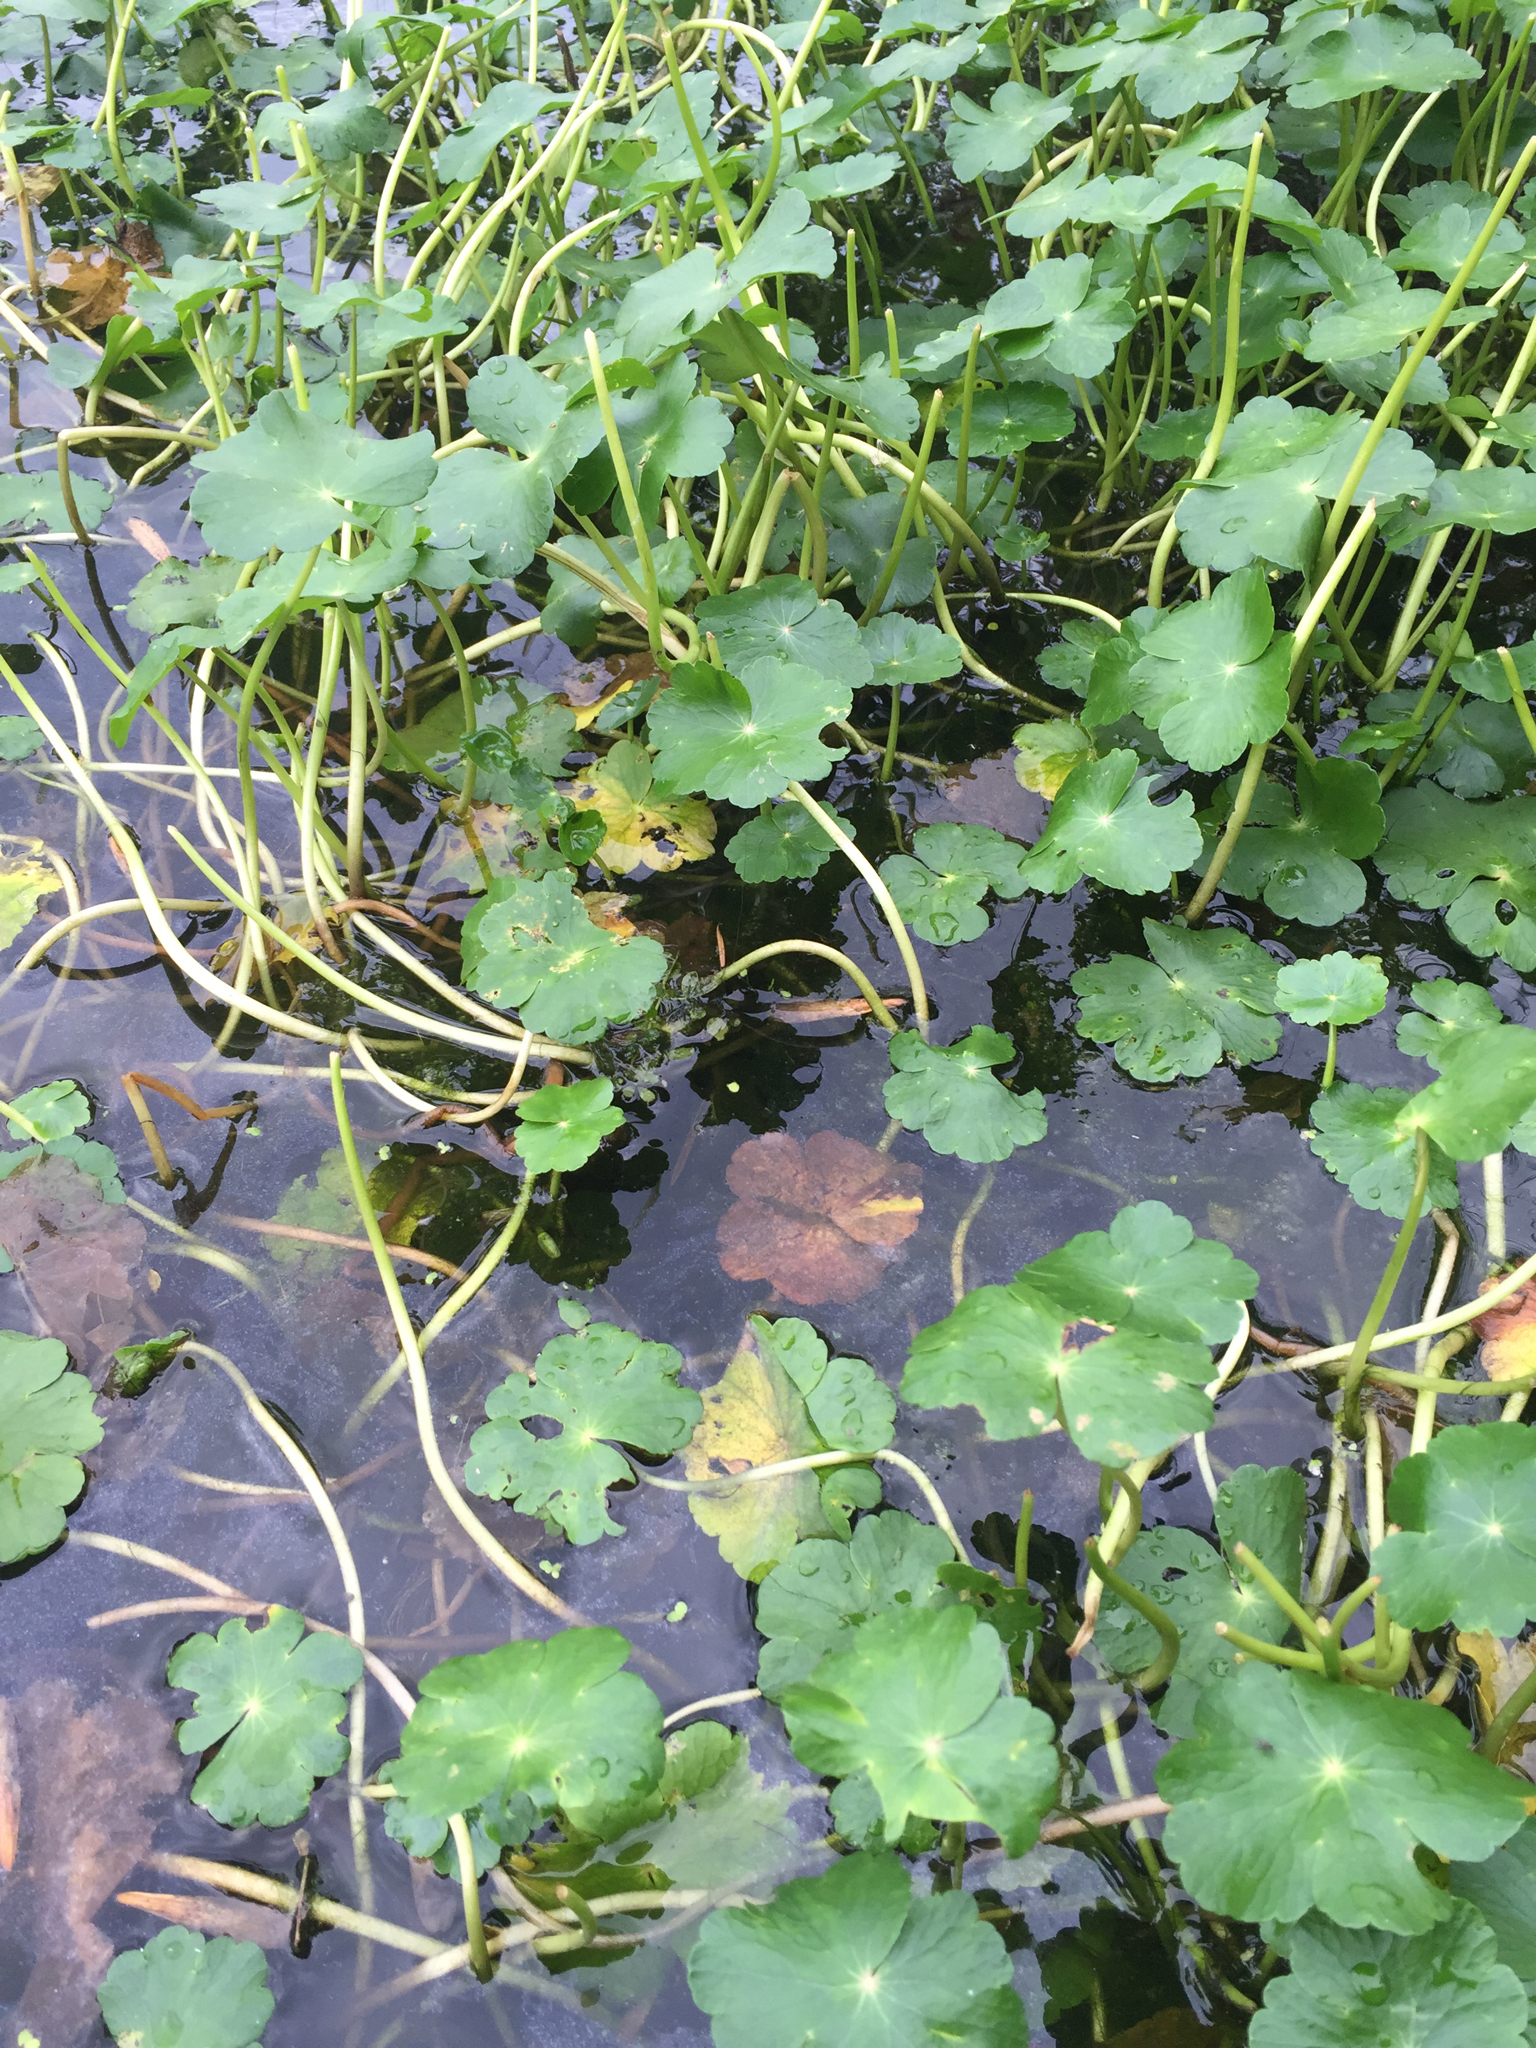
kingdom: Plantae
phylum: Tracheophyta
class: Magnoliopsida
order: Apiales
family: Araliaceae
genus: Hydrocotyle
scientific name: Hydrocotyle ranunculoides
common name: Floating pennywort
